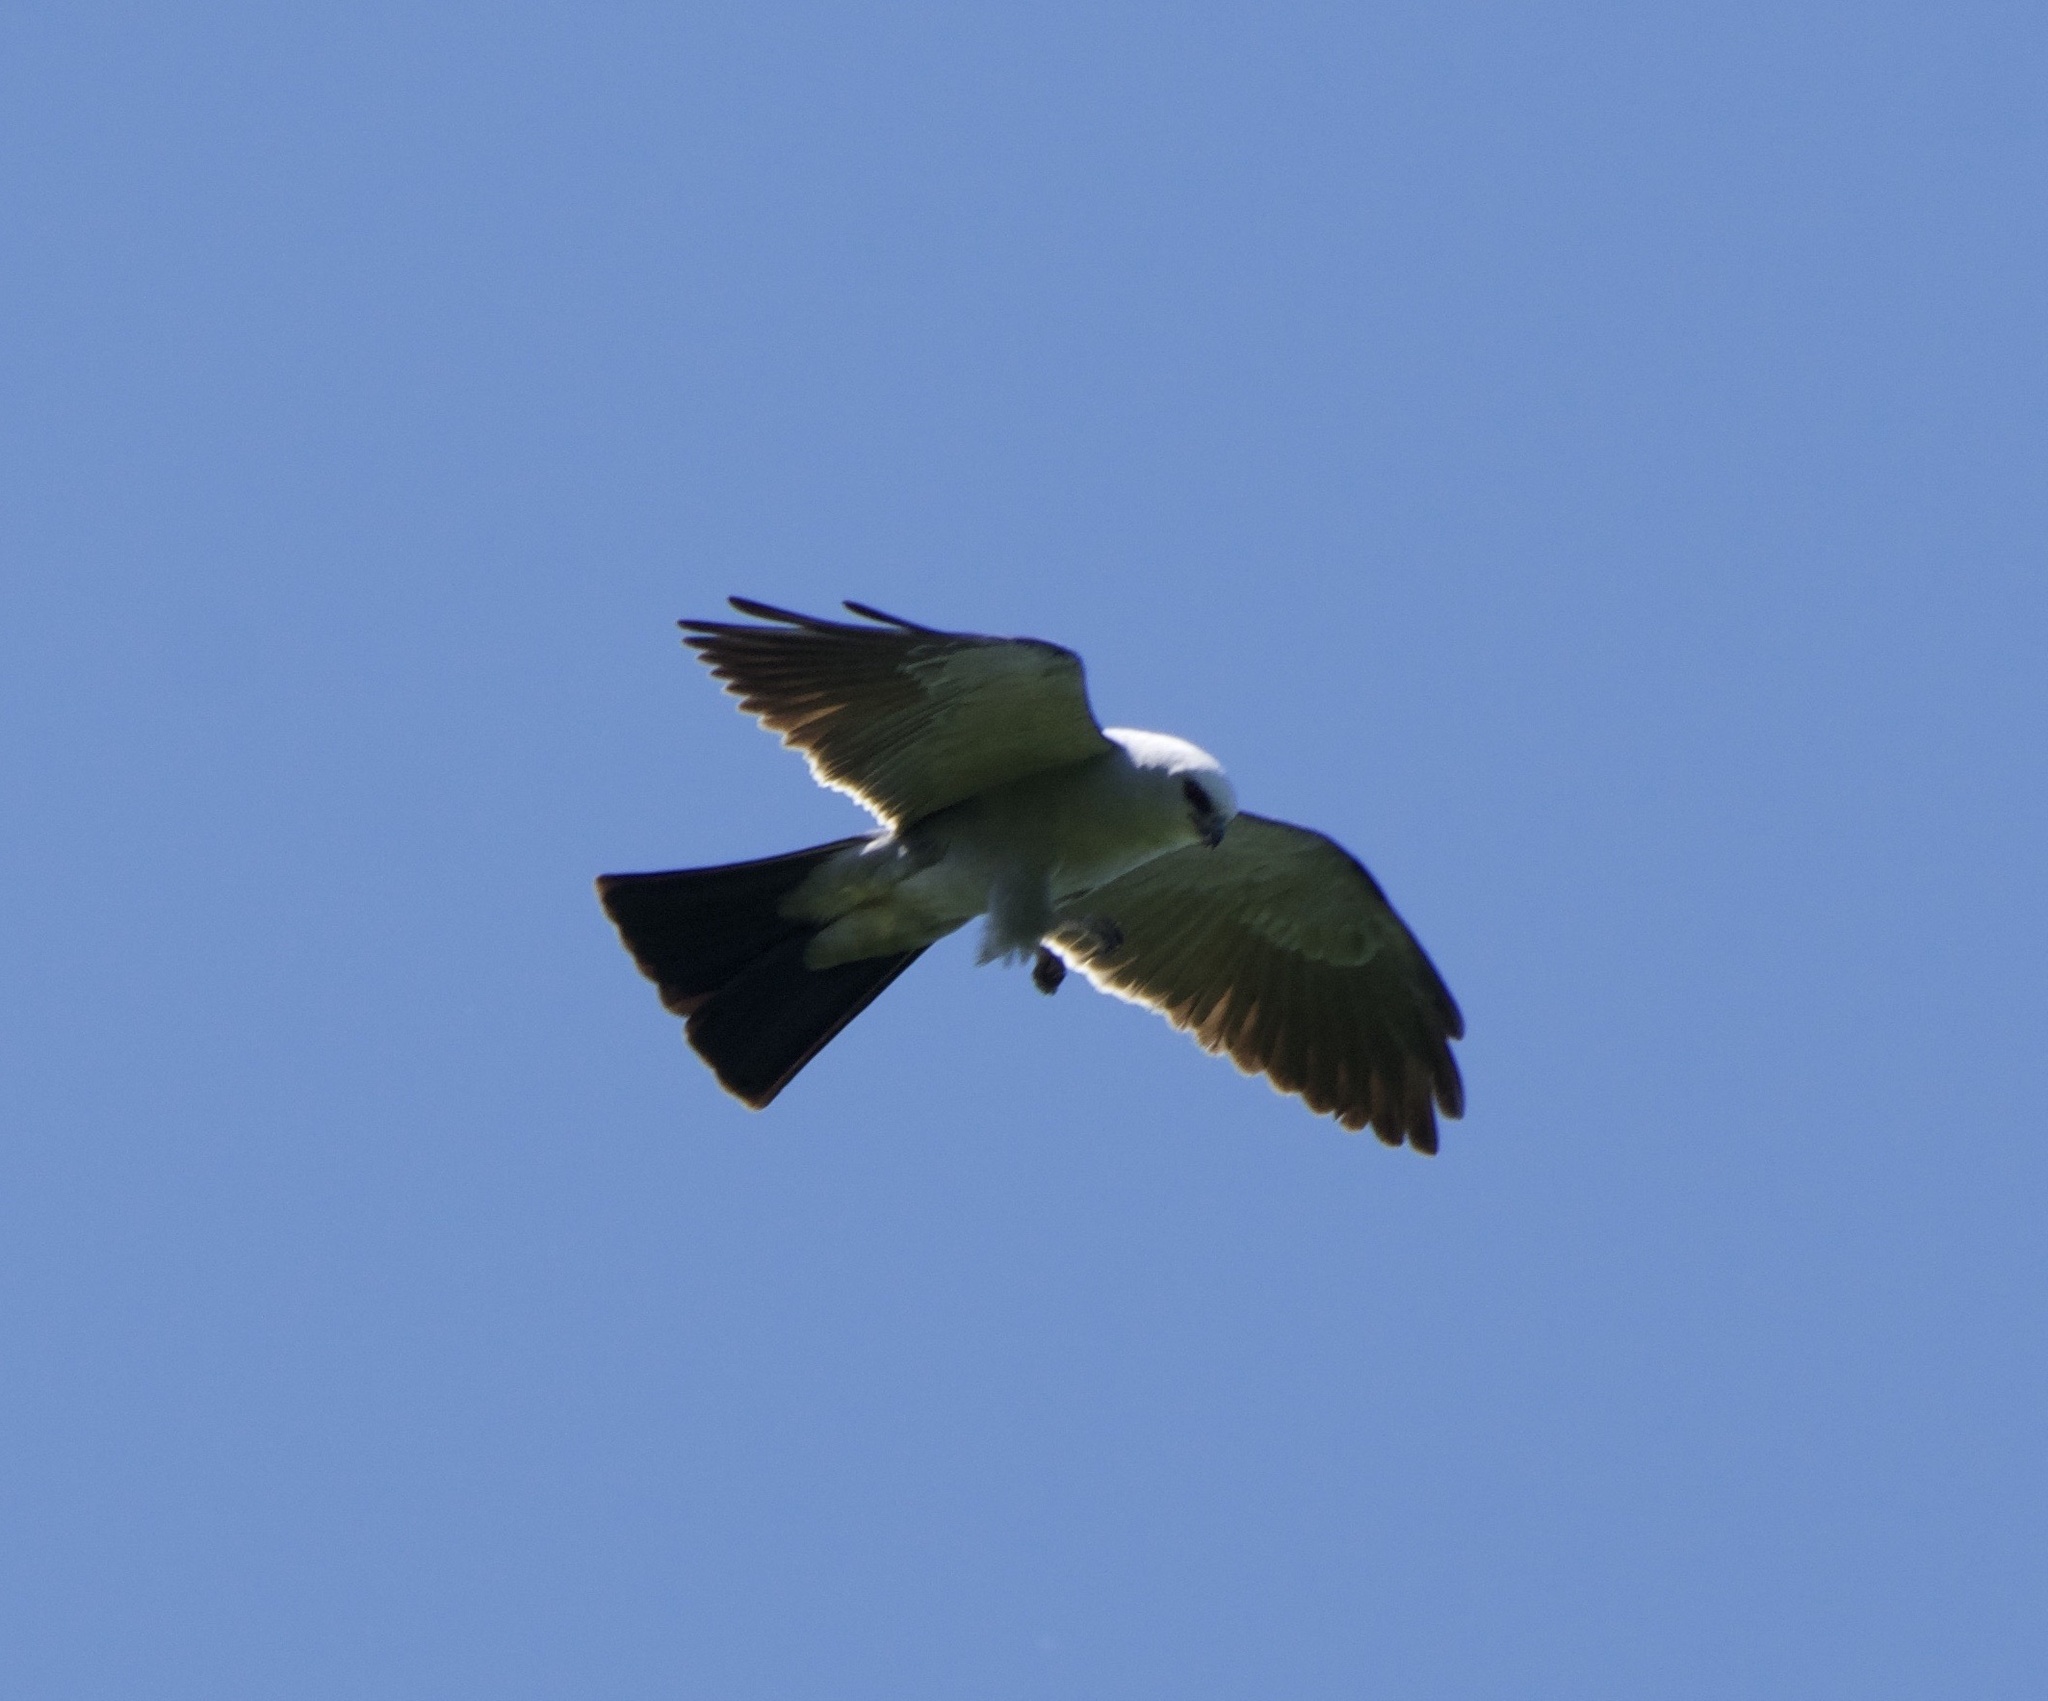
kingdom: Animalia
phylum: Chordata
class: Aves
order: Accipitriformes
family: Accipitridae
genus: Ictinia
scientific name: Ictinia mississippiensis
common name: Mississippi kite
